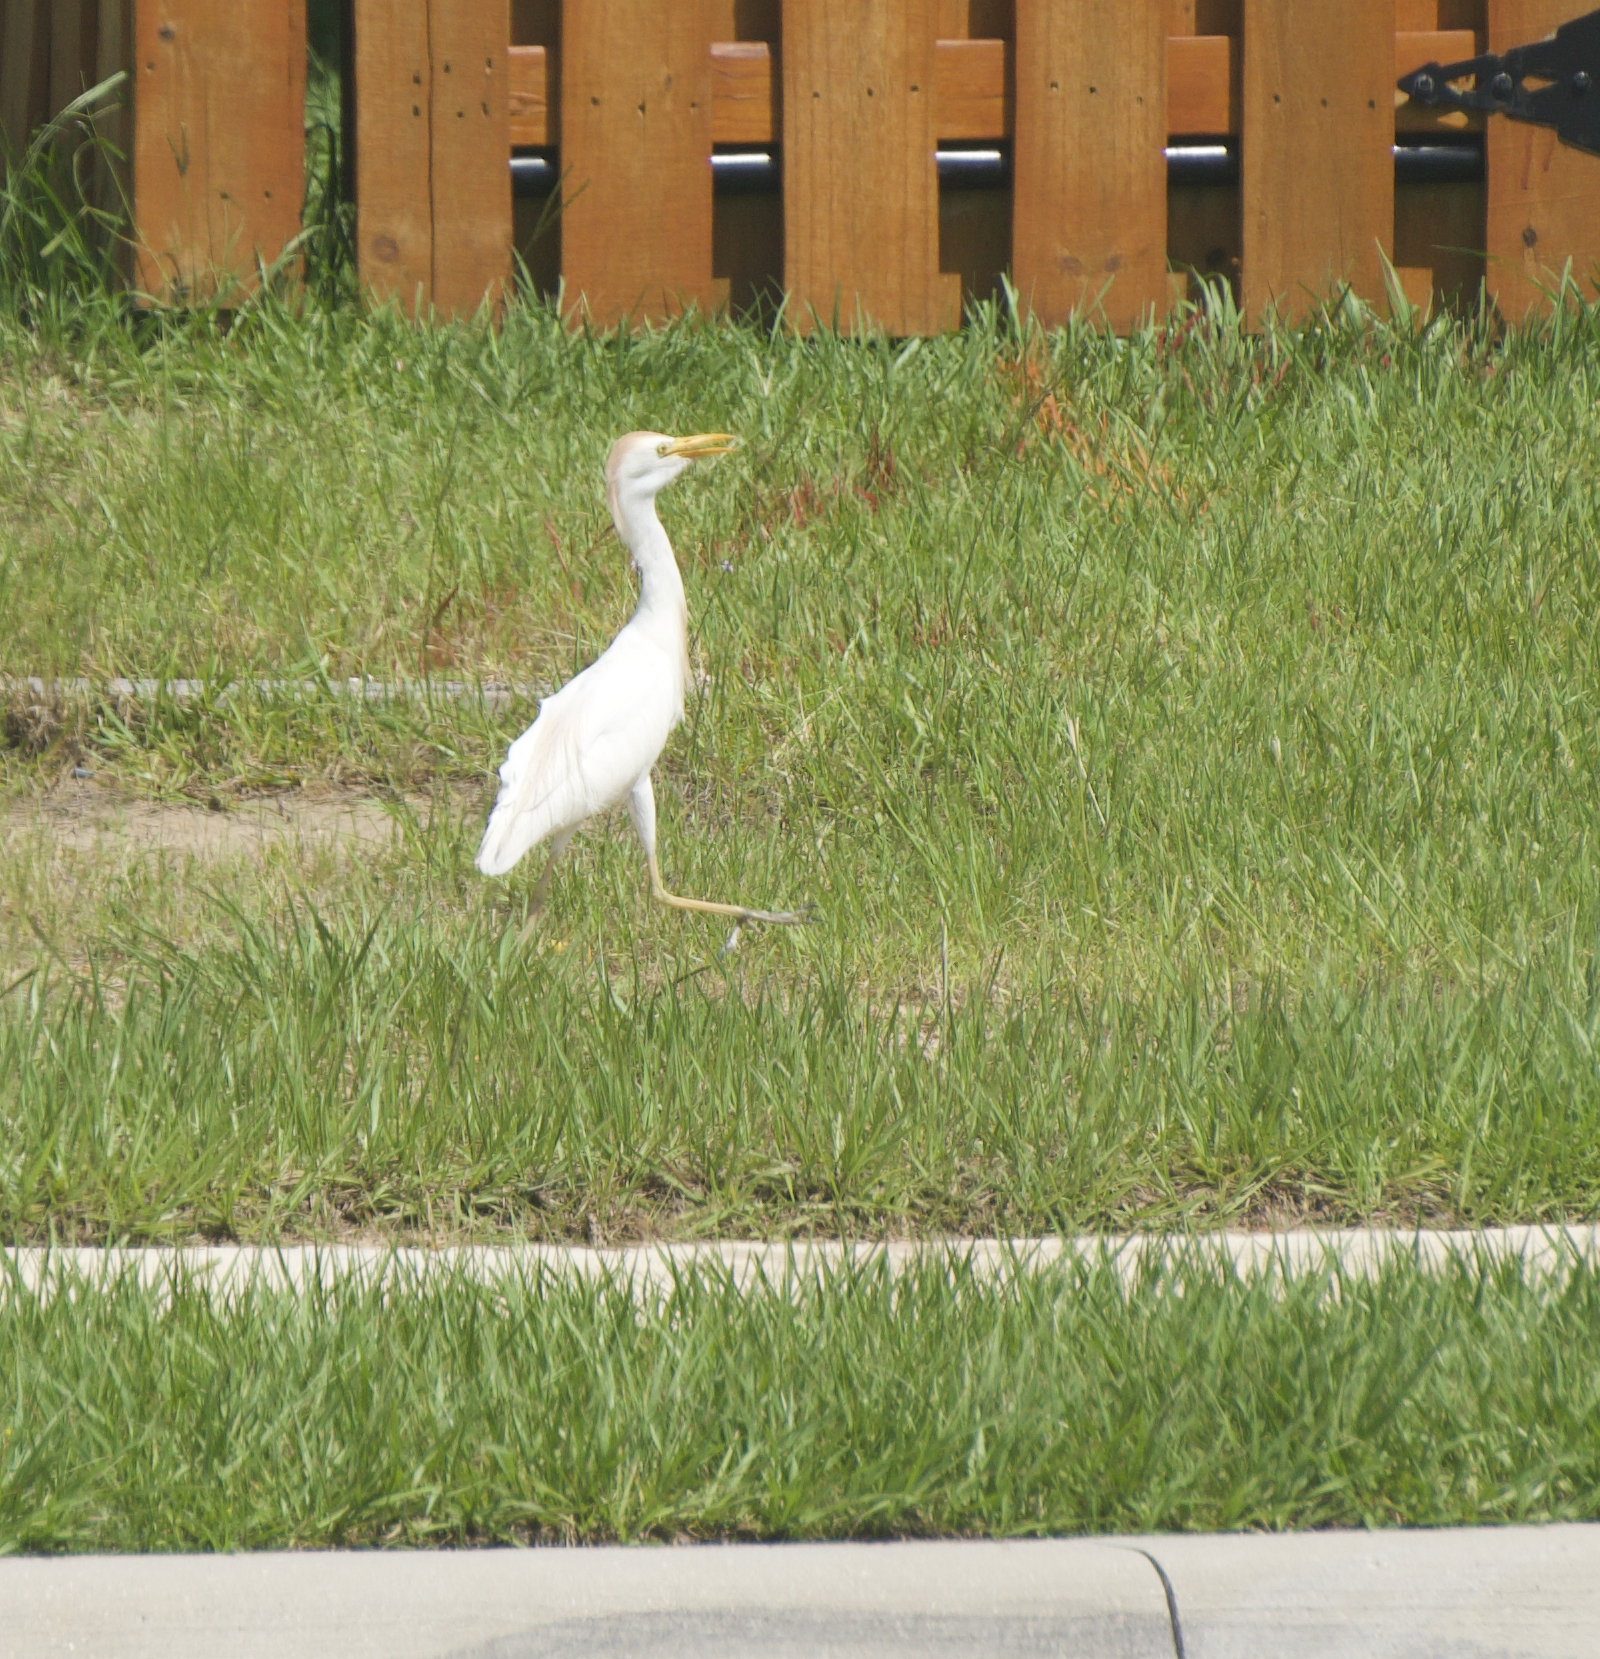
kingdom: Animalia
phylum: Chordata
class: Aves
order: Pelecaniformes
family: Ardeidae
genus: Bubulcus
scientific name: Bubulcus ibis
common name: Cattle egret
